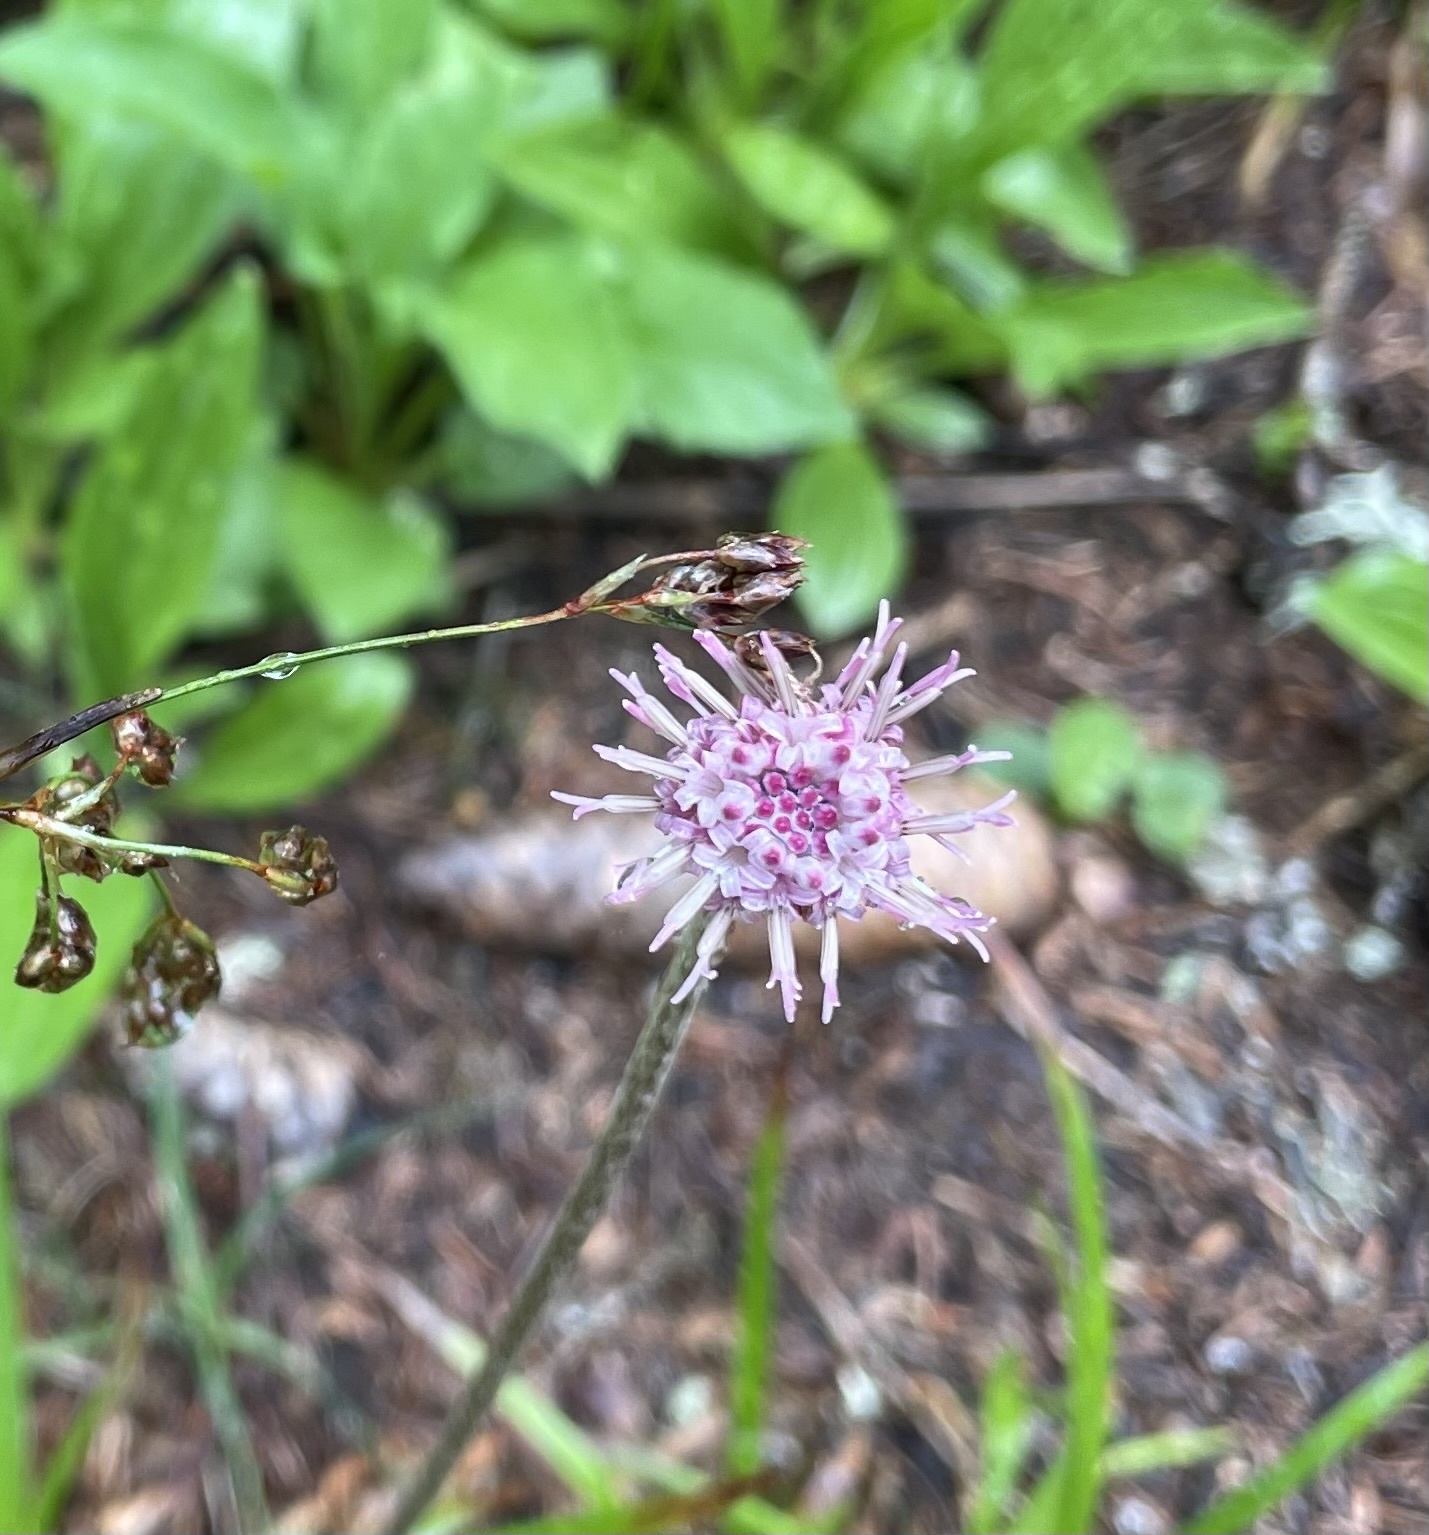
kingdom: Plantae
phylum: Tracheophyta
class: Magnoliopsida
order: Asterales
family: Asteraceae
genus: Homogyne
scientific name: Homogyne alpina
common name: Purple colt's-foot
